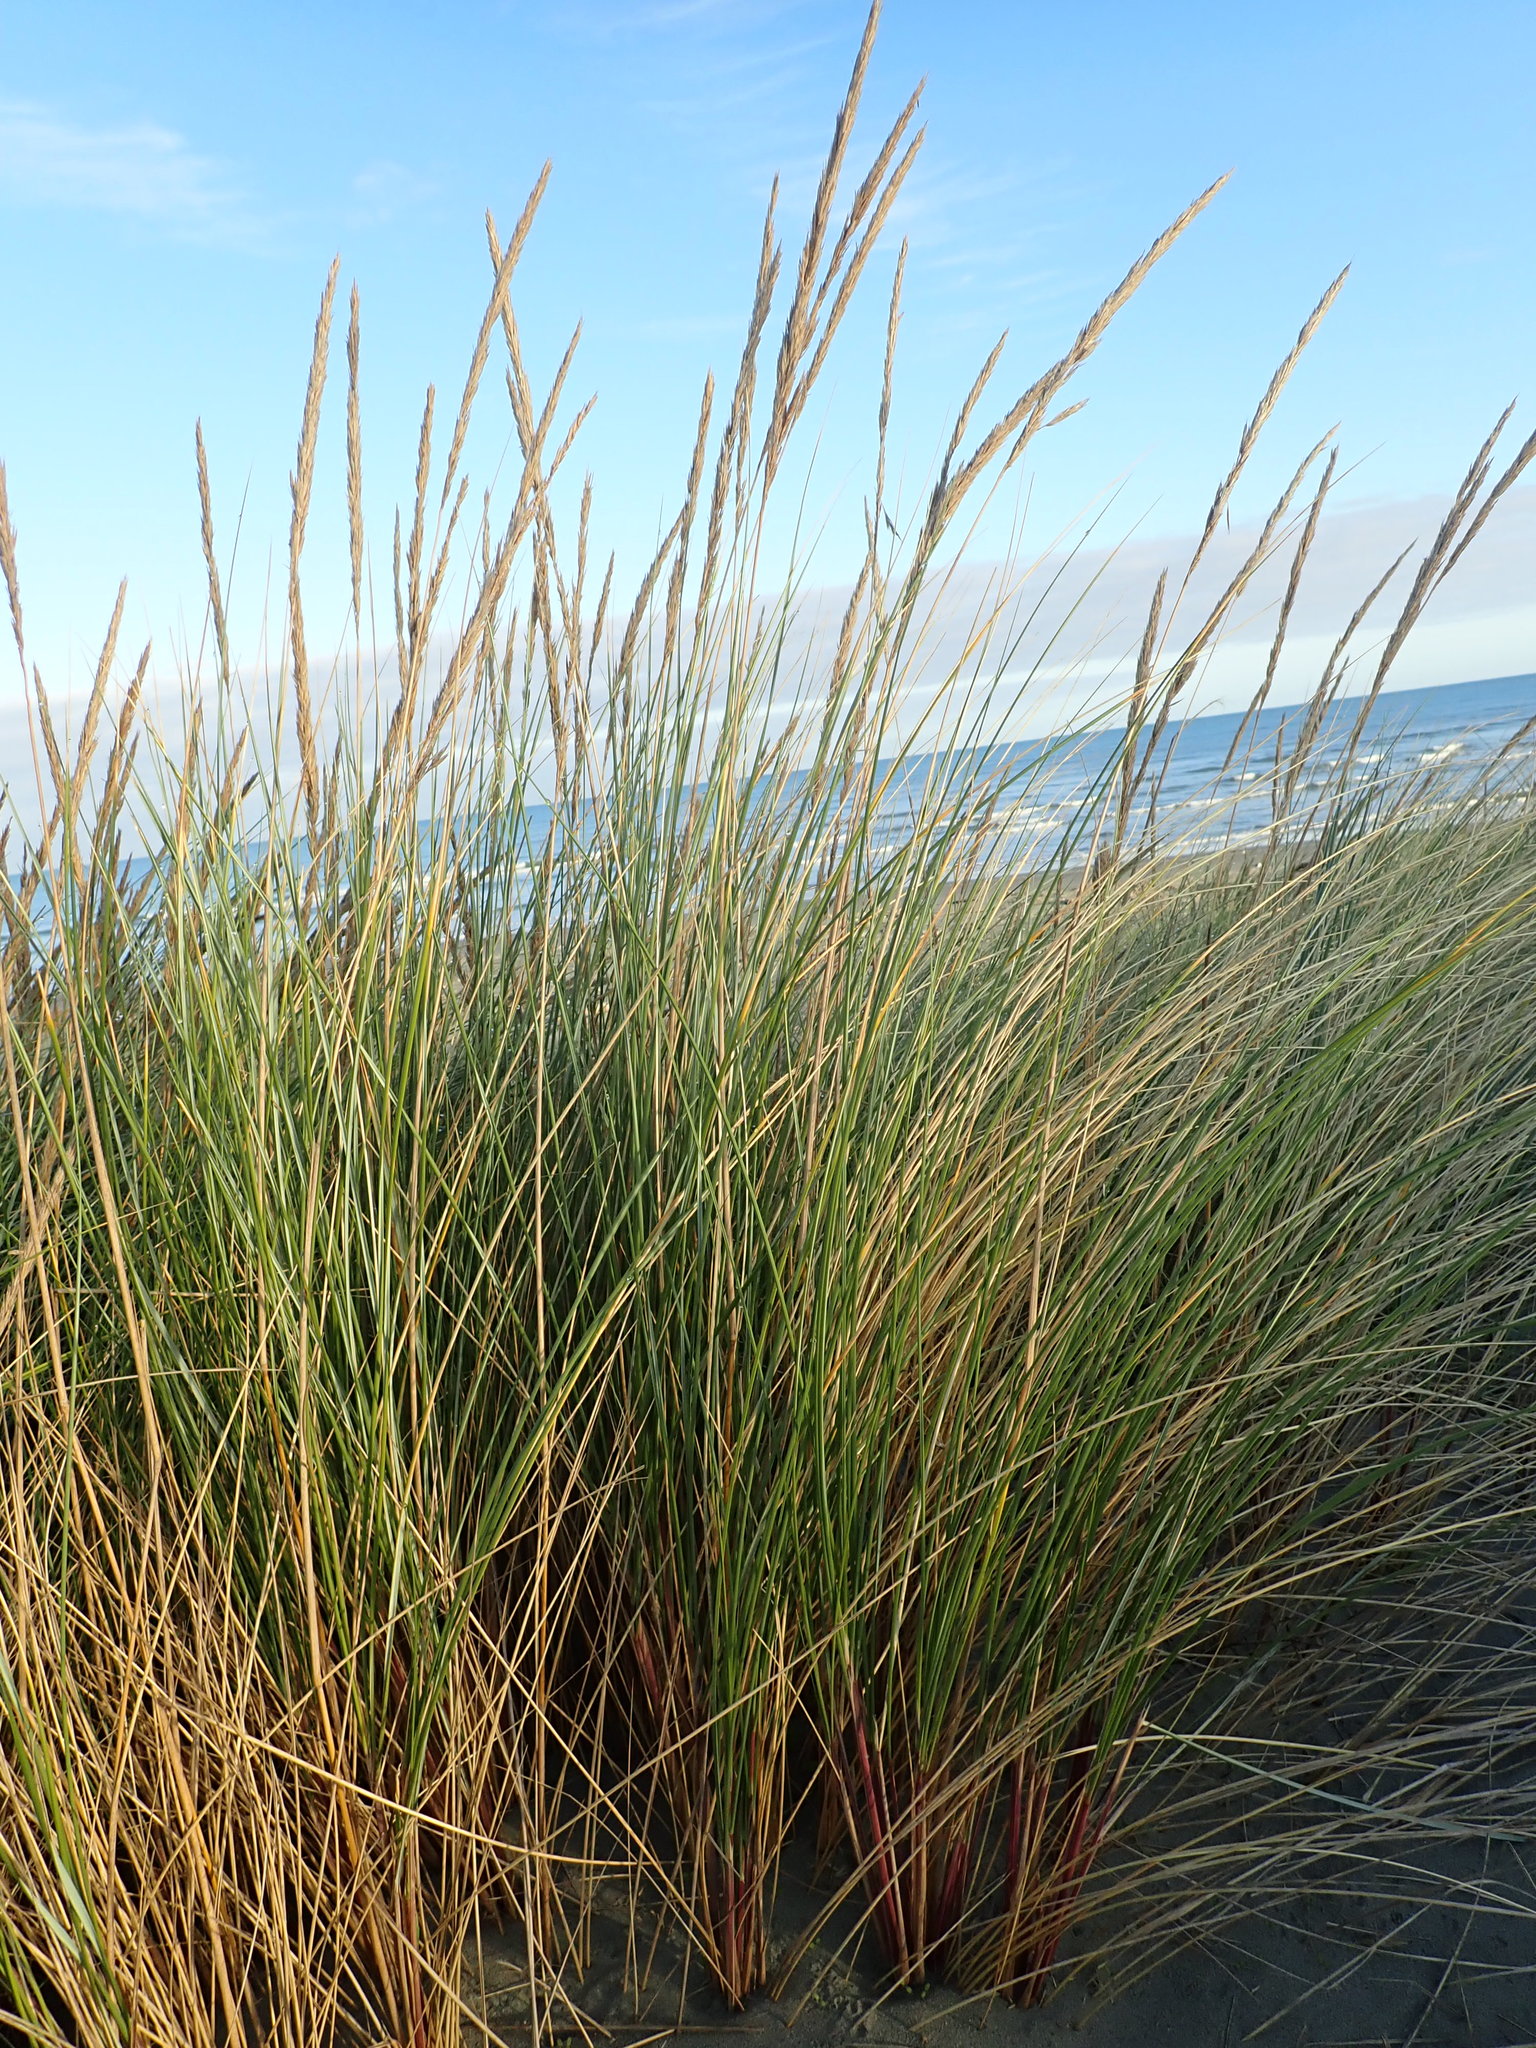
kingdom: Plantae
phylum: Tracheophyta
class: Liliopsida
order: Poales
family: Poaceae
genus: Calamagrostis
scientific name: Calamagrostis arenaria
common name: European beachgrass
